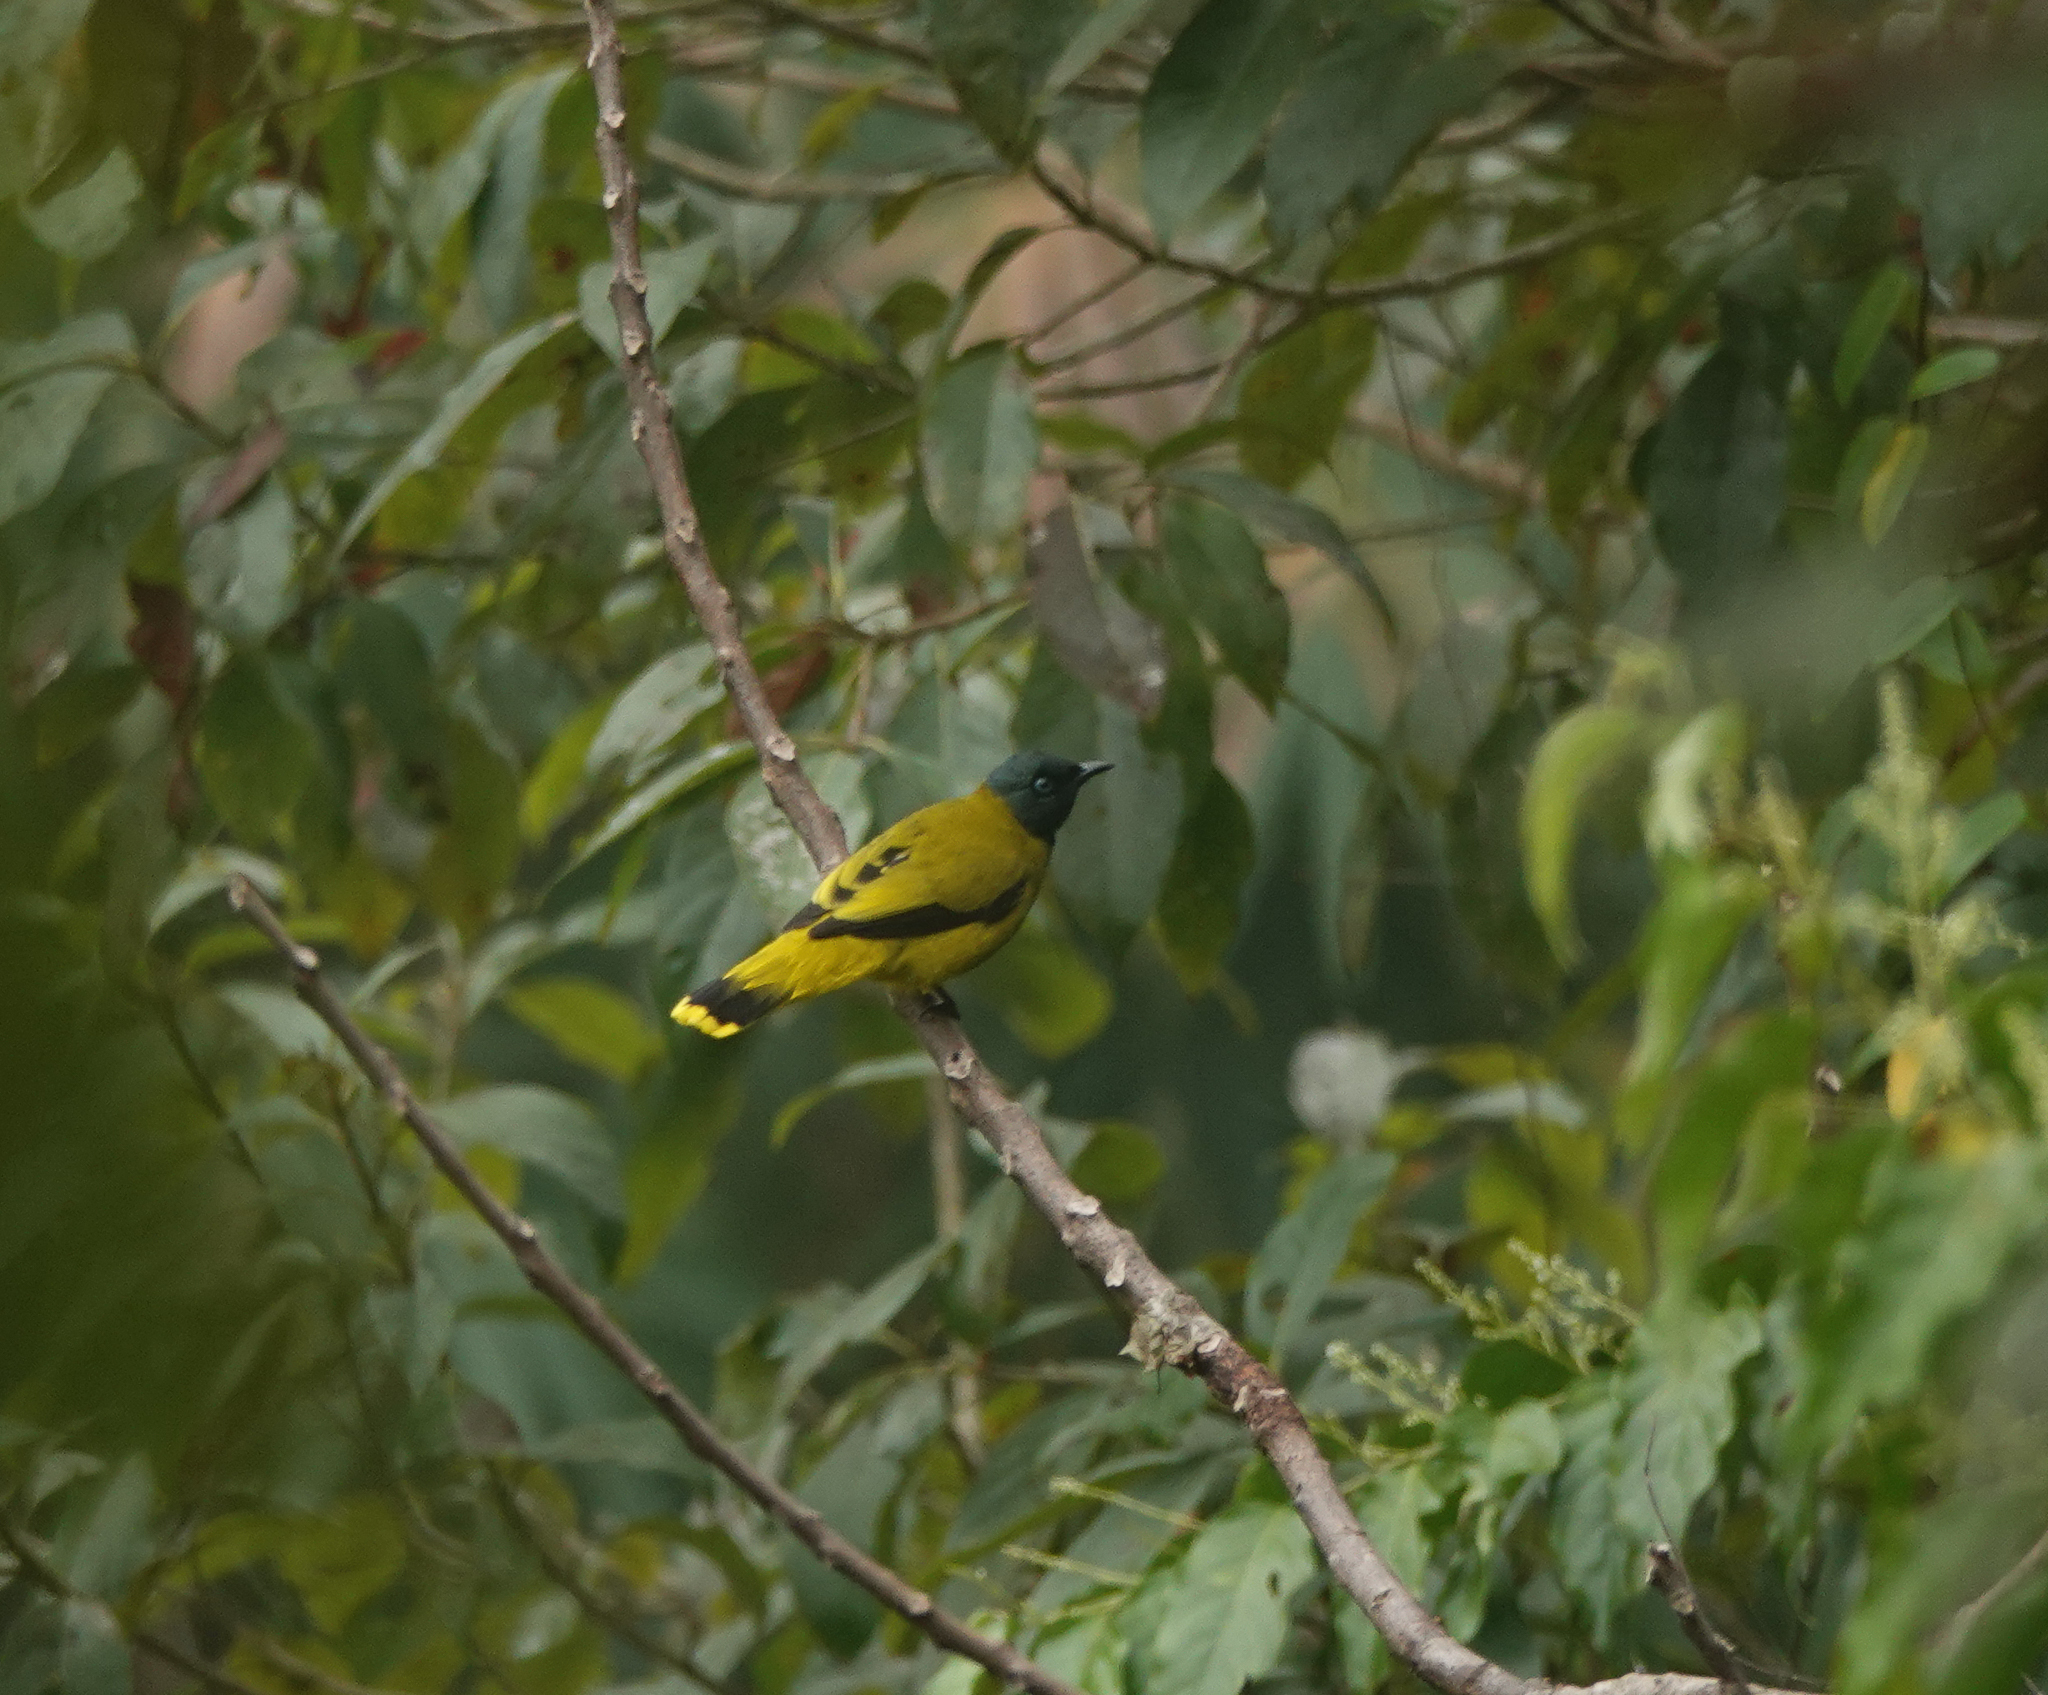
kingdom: Animalia
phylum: Chordata
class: Aves
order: Passeriformes
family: Pycnonotidae
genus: Microtarsus
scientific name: Microtarsus
